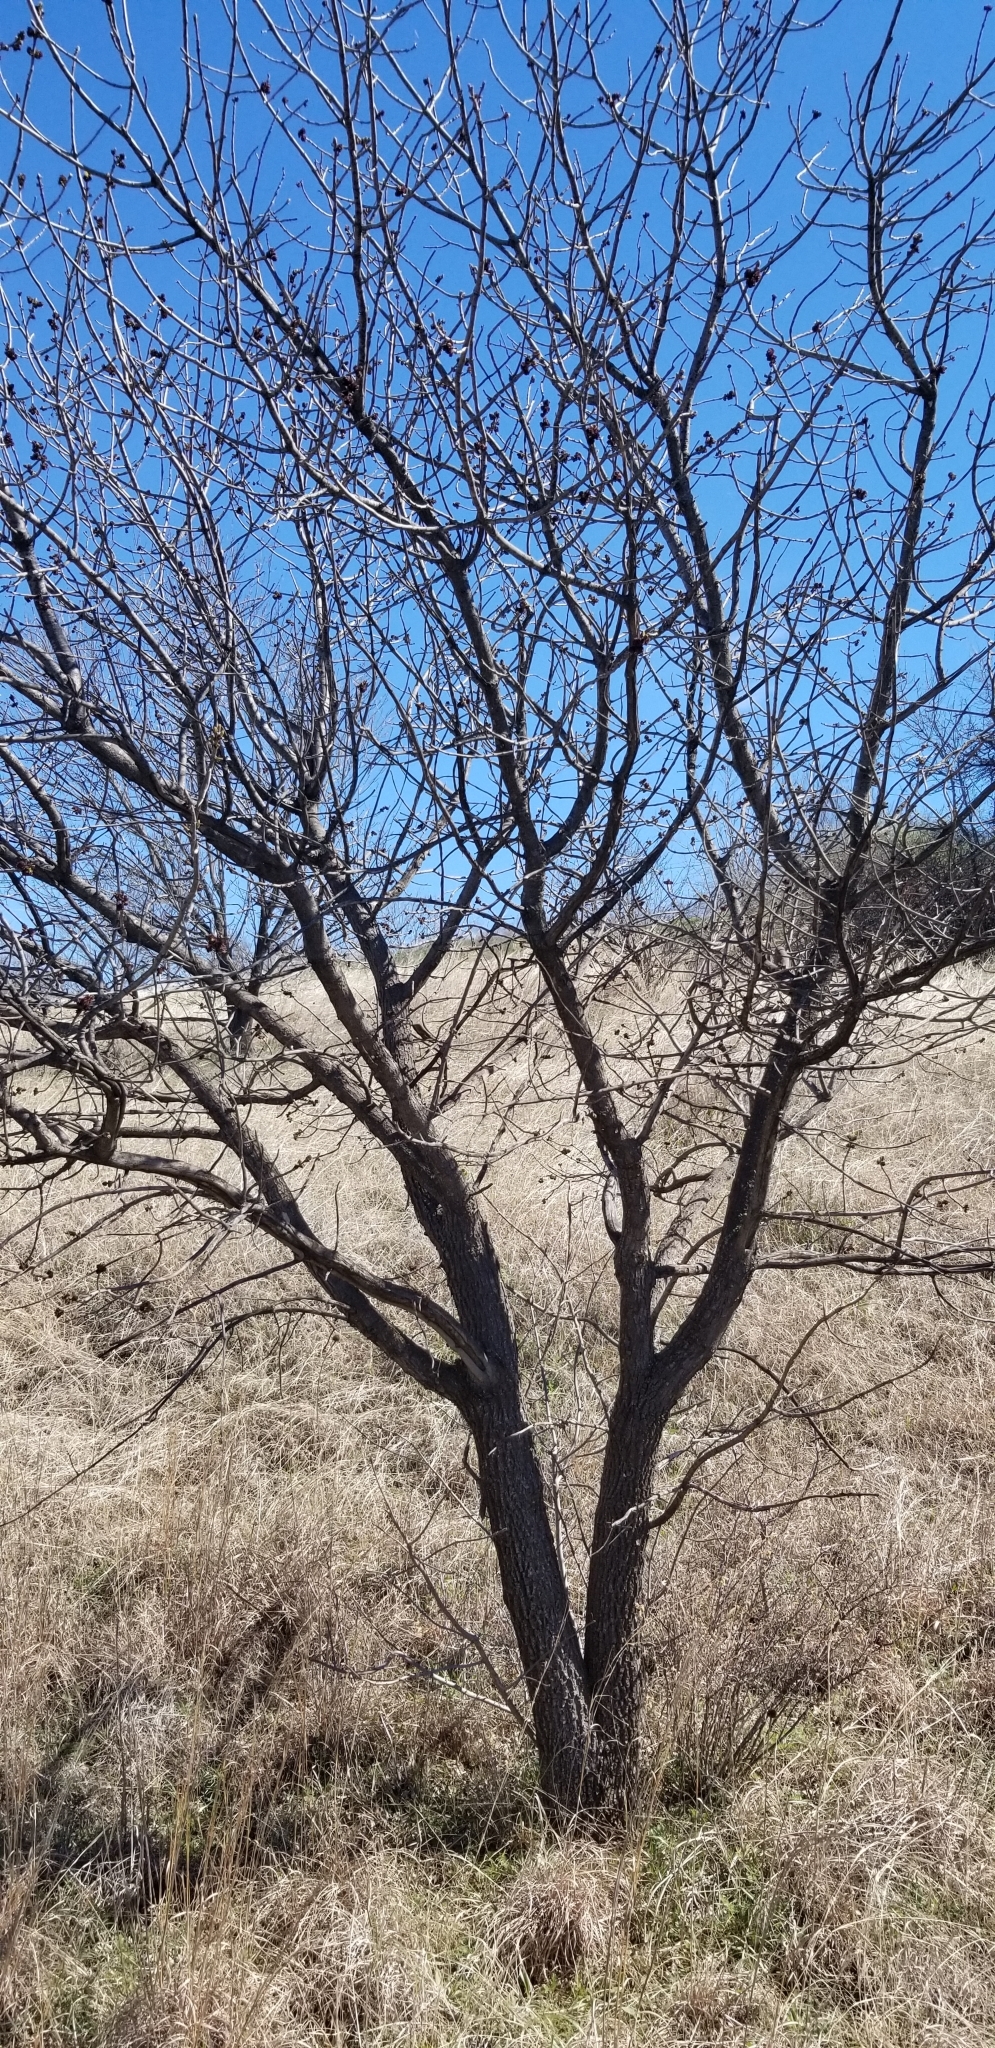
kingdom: Plantae
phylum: Tracheophyta
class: Magnoliopsida
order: Lamiales
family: Oleaceae
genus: Fraxinus
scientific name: Fraxinus albicans
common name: Texas ash
